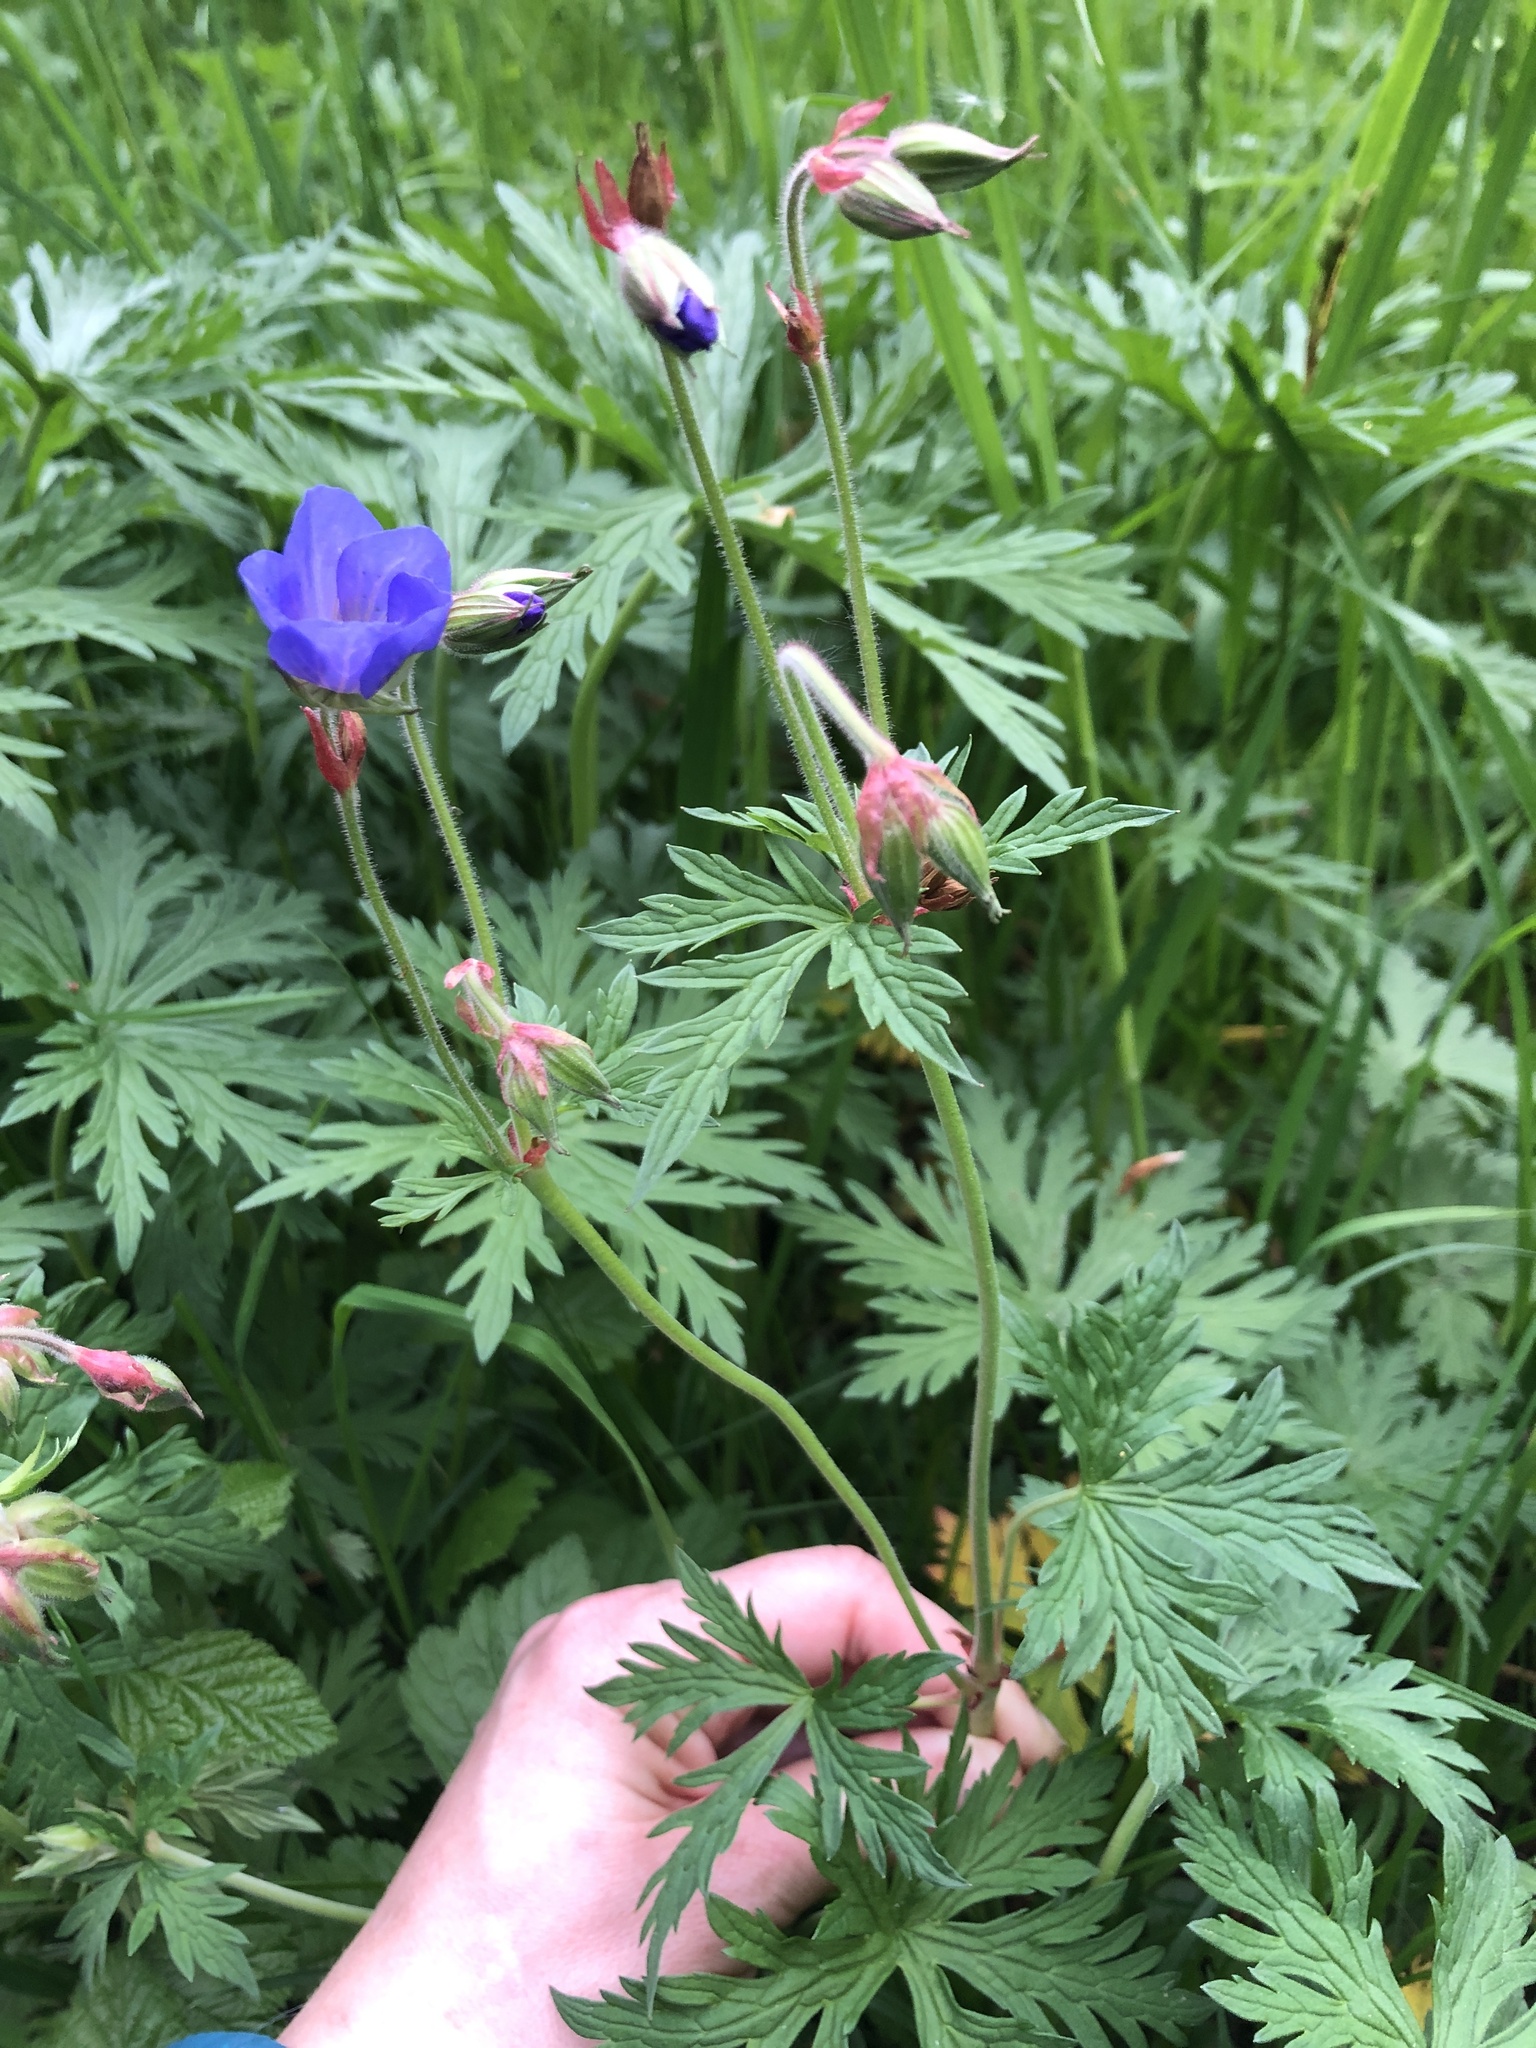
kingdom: Plantae
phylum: Tracheophyta
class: Magnoliopsida
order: Geraniales
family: Geraniaceae
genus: Geranium
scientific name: Geranium pratense
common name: Meadow crane's-bill
